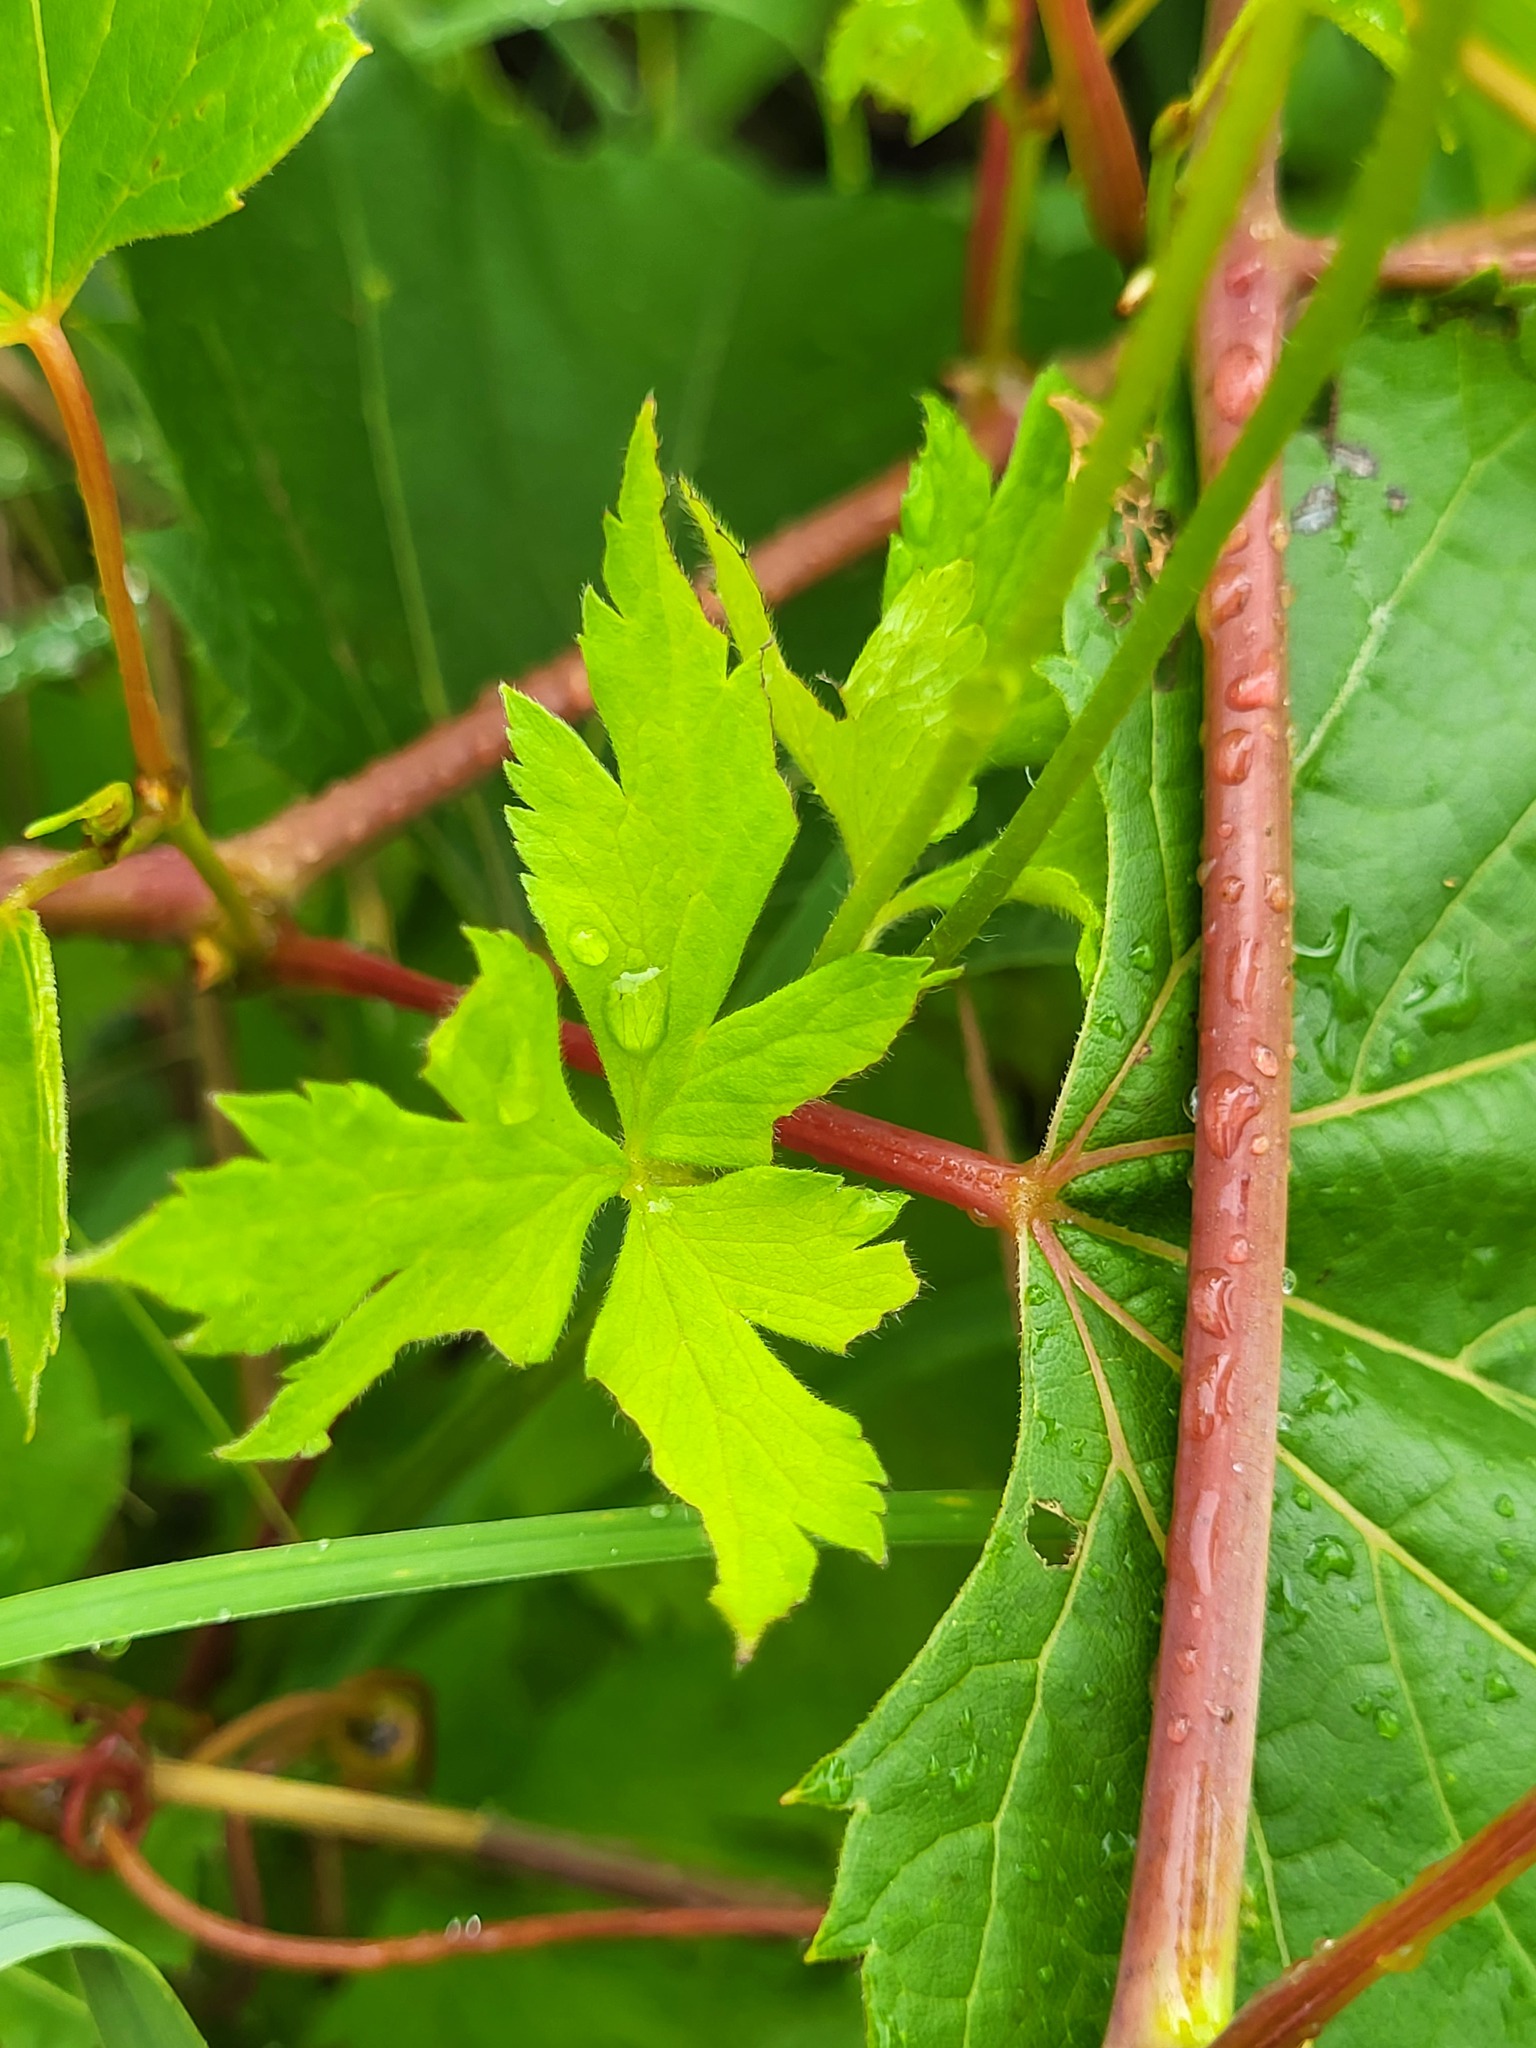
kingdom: Plantae
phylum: Tracheophyta
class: Magnoliopsida
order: Ranunculales
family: Ranunculaceae
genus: Anemone
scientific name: Anemone virginiana
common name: Tall anemone
